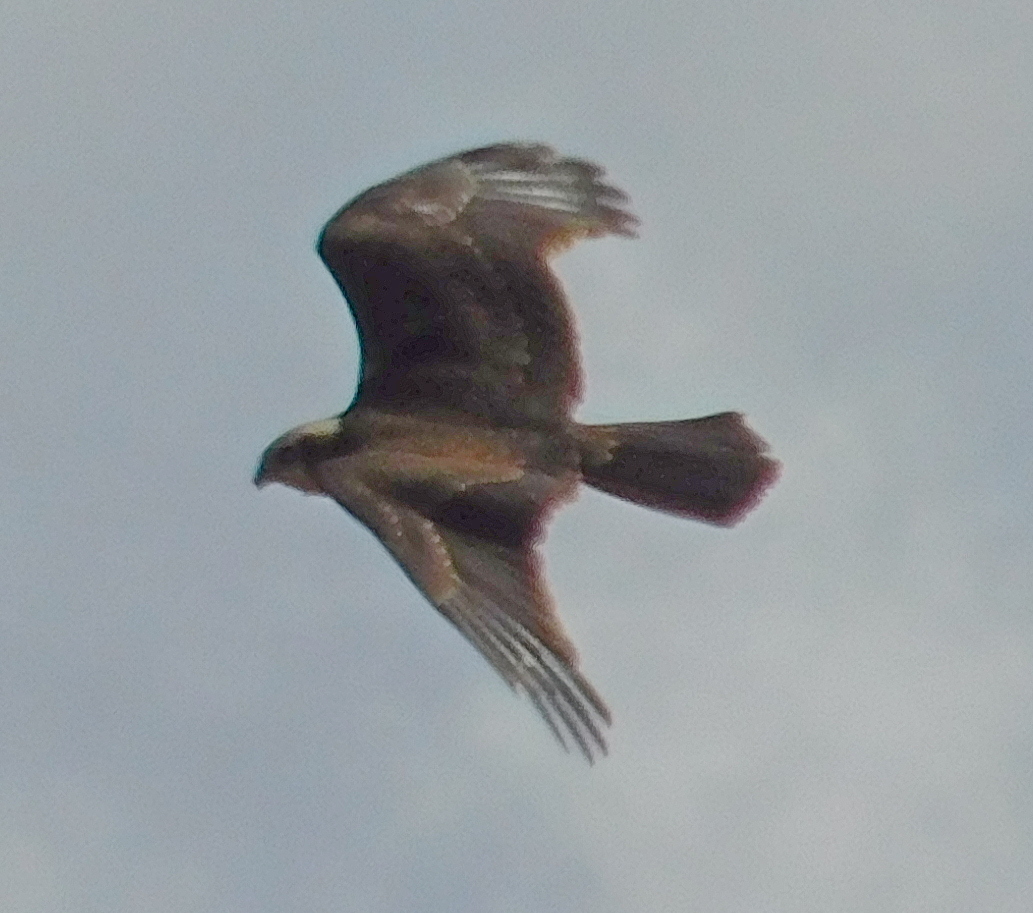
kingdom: Animalia
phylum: Chordata
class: Aves
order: Accipitriformes
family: Accipitridae
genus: Circus
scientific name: Circus aeruginosus
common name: Western marsh harrier
